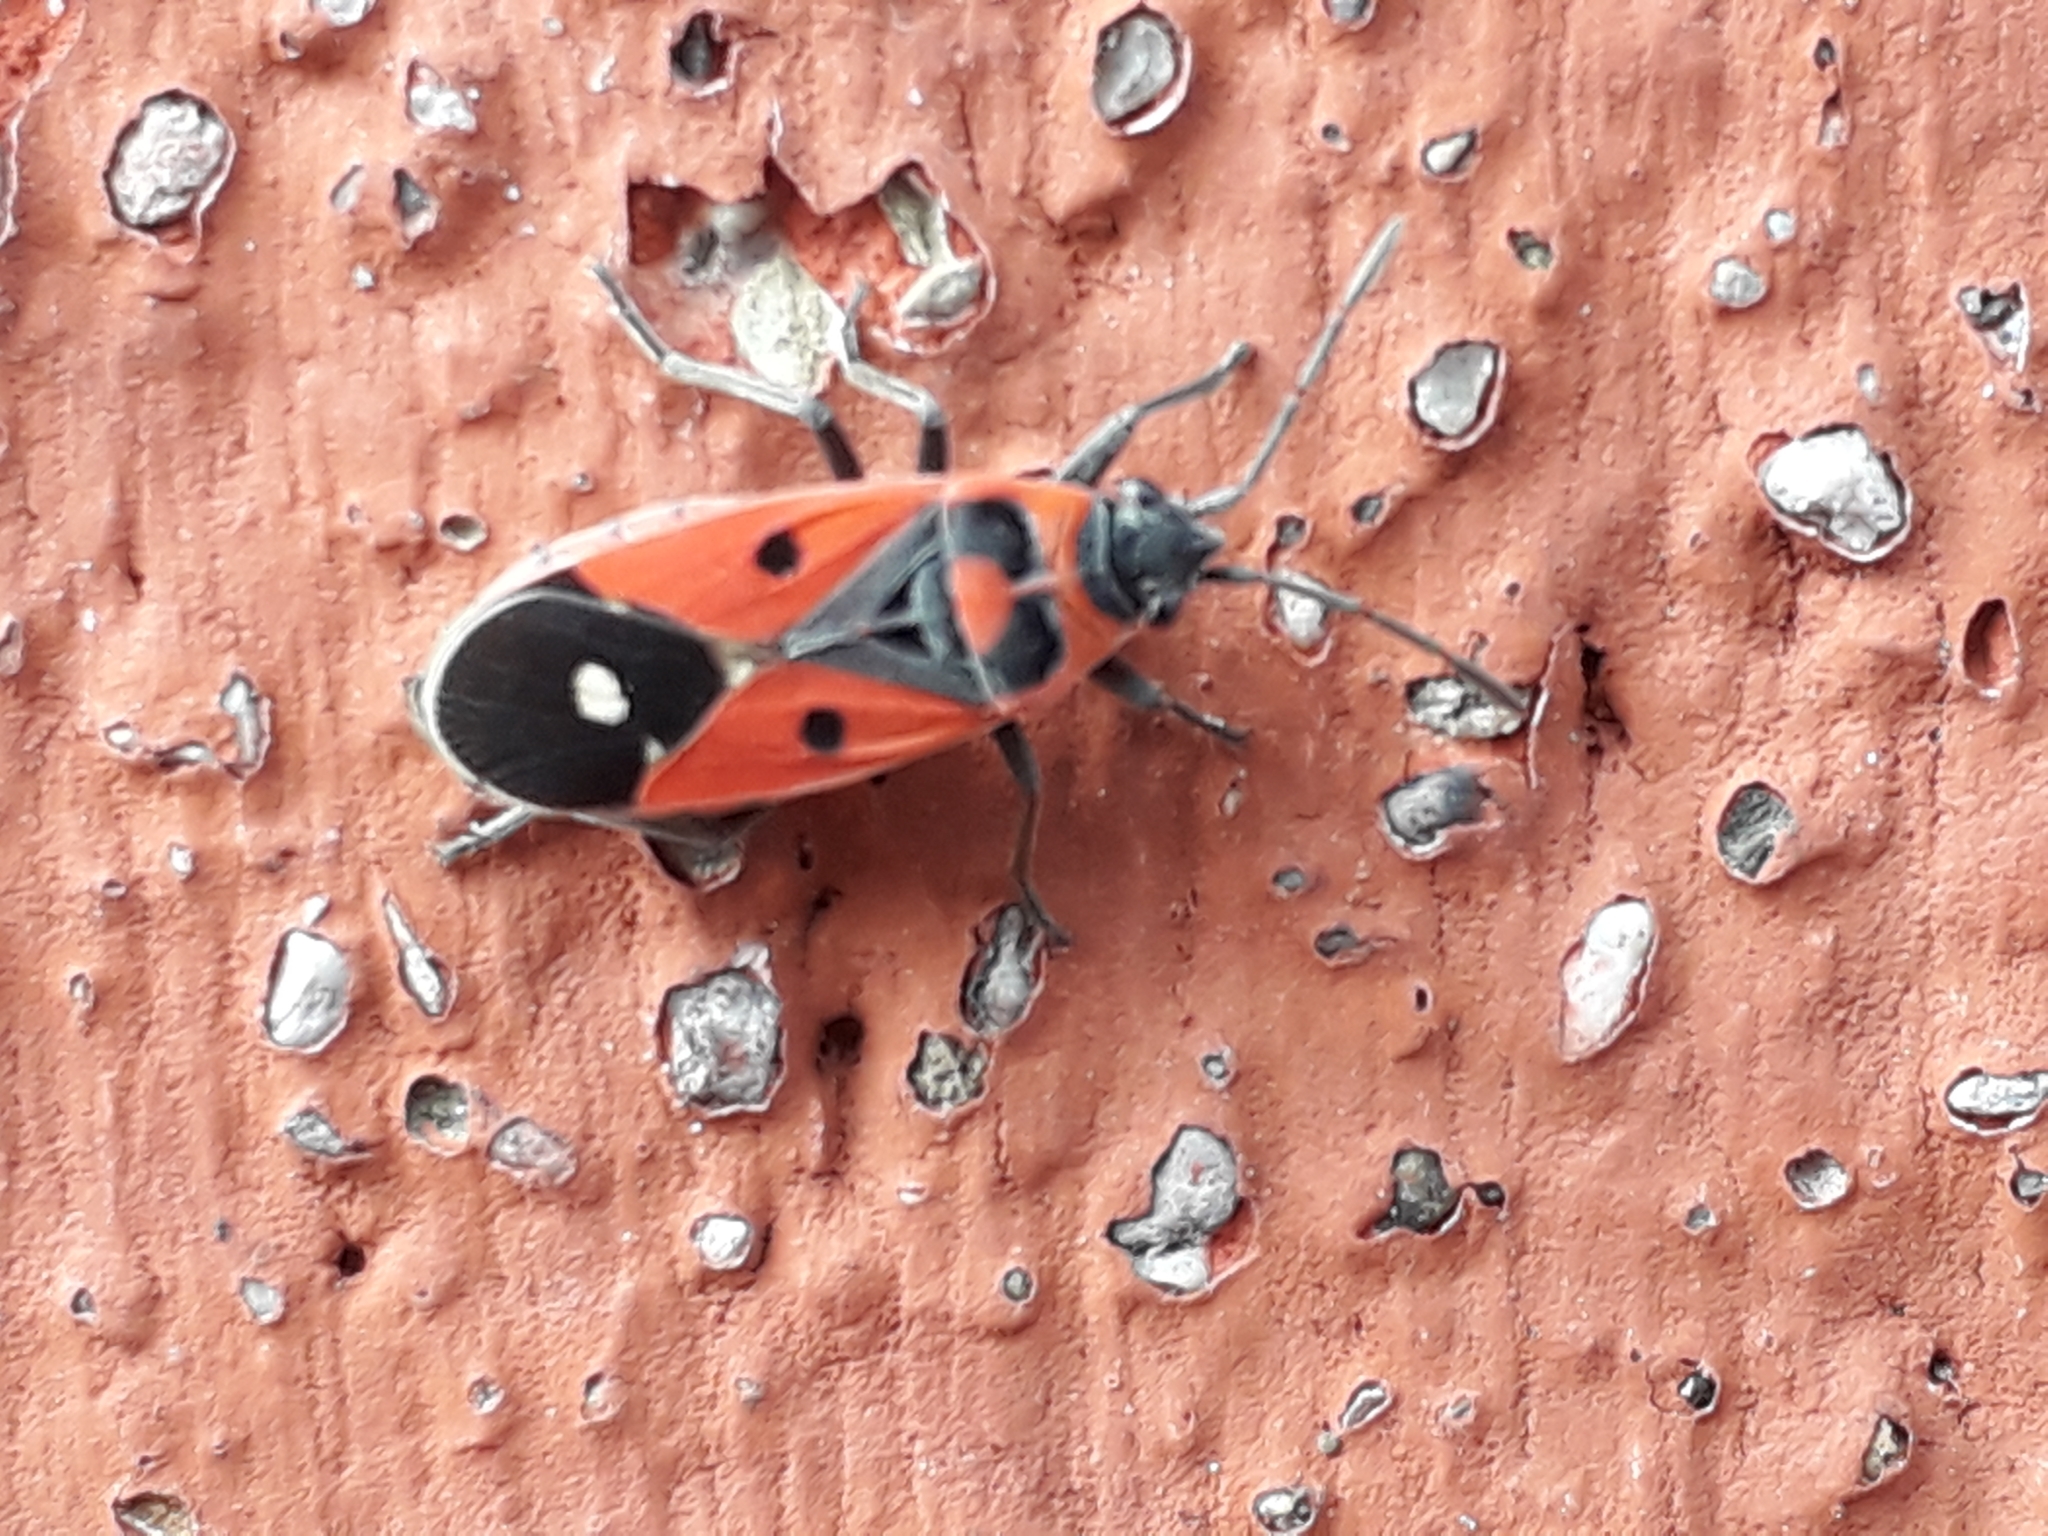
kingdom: Animalia
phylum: Arthropoda
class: Insecta
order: Hemiptera
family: Lygaeidae
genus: Melanocoryphus
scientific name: Melanocoryphus albomaculatus
